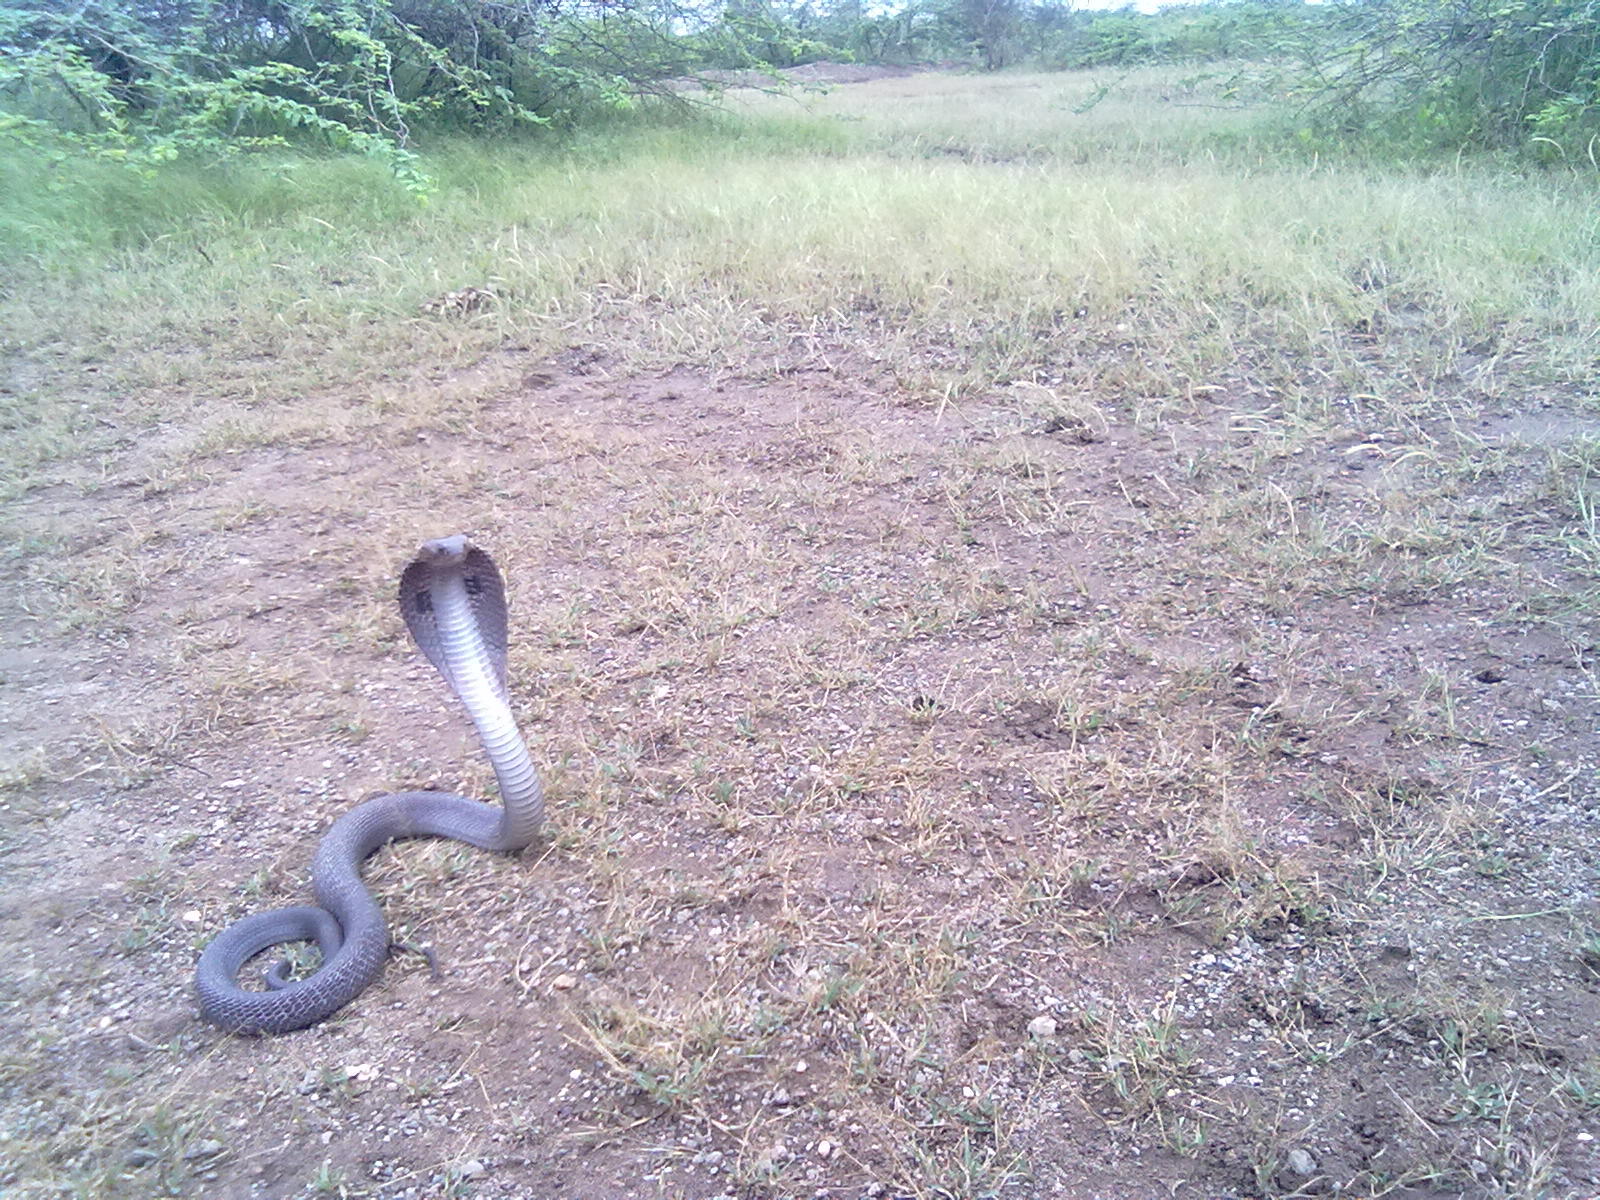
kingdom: Animalia
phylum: Chordata
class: Squamata
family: Elapidae
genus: Naja
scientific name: Naja naja
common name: Indian cobra
